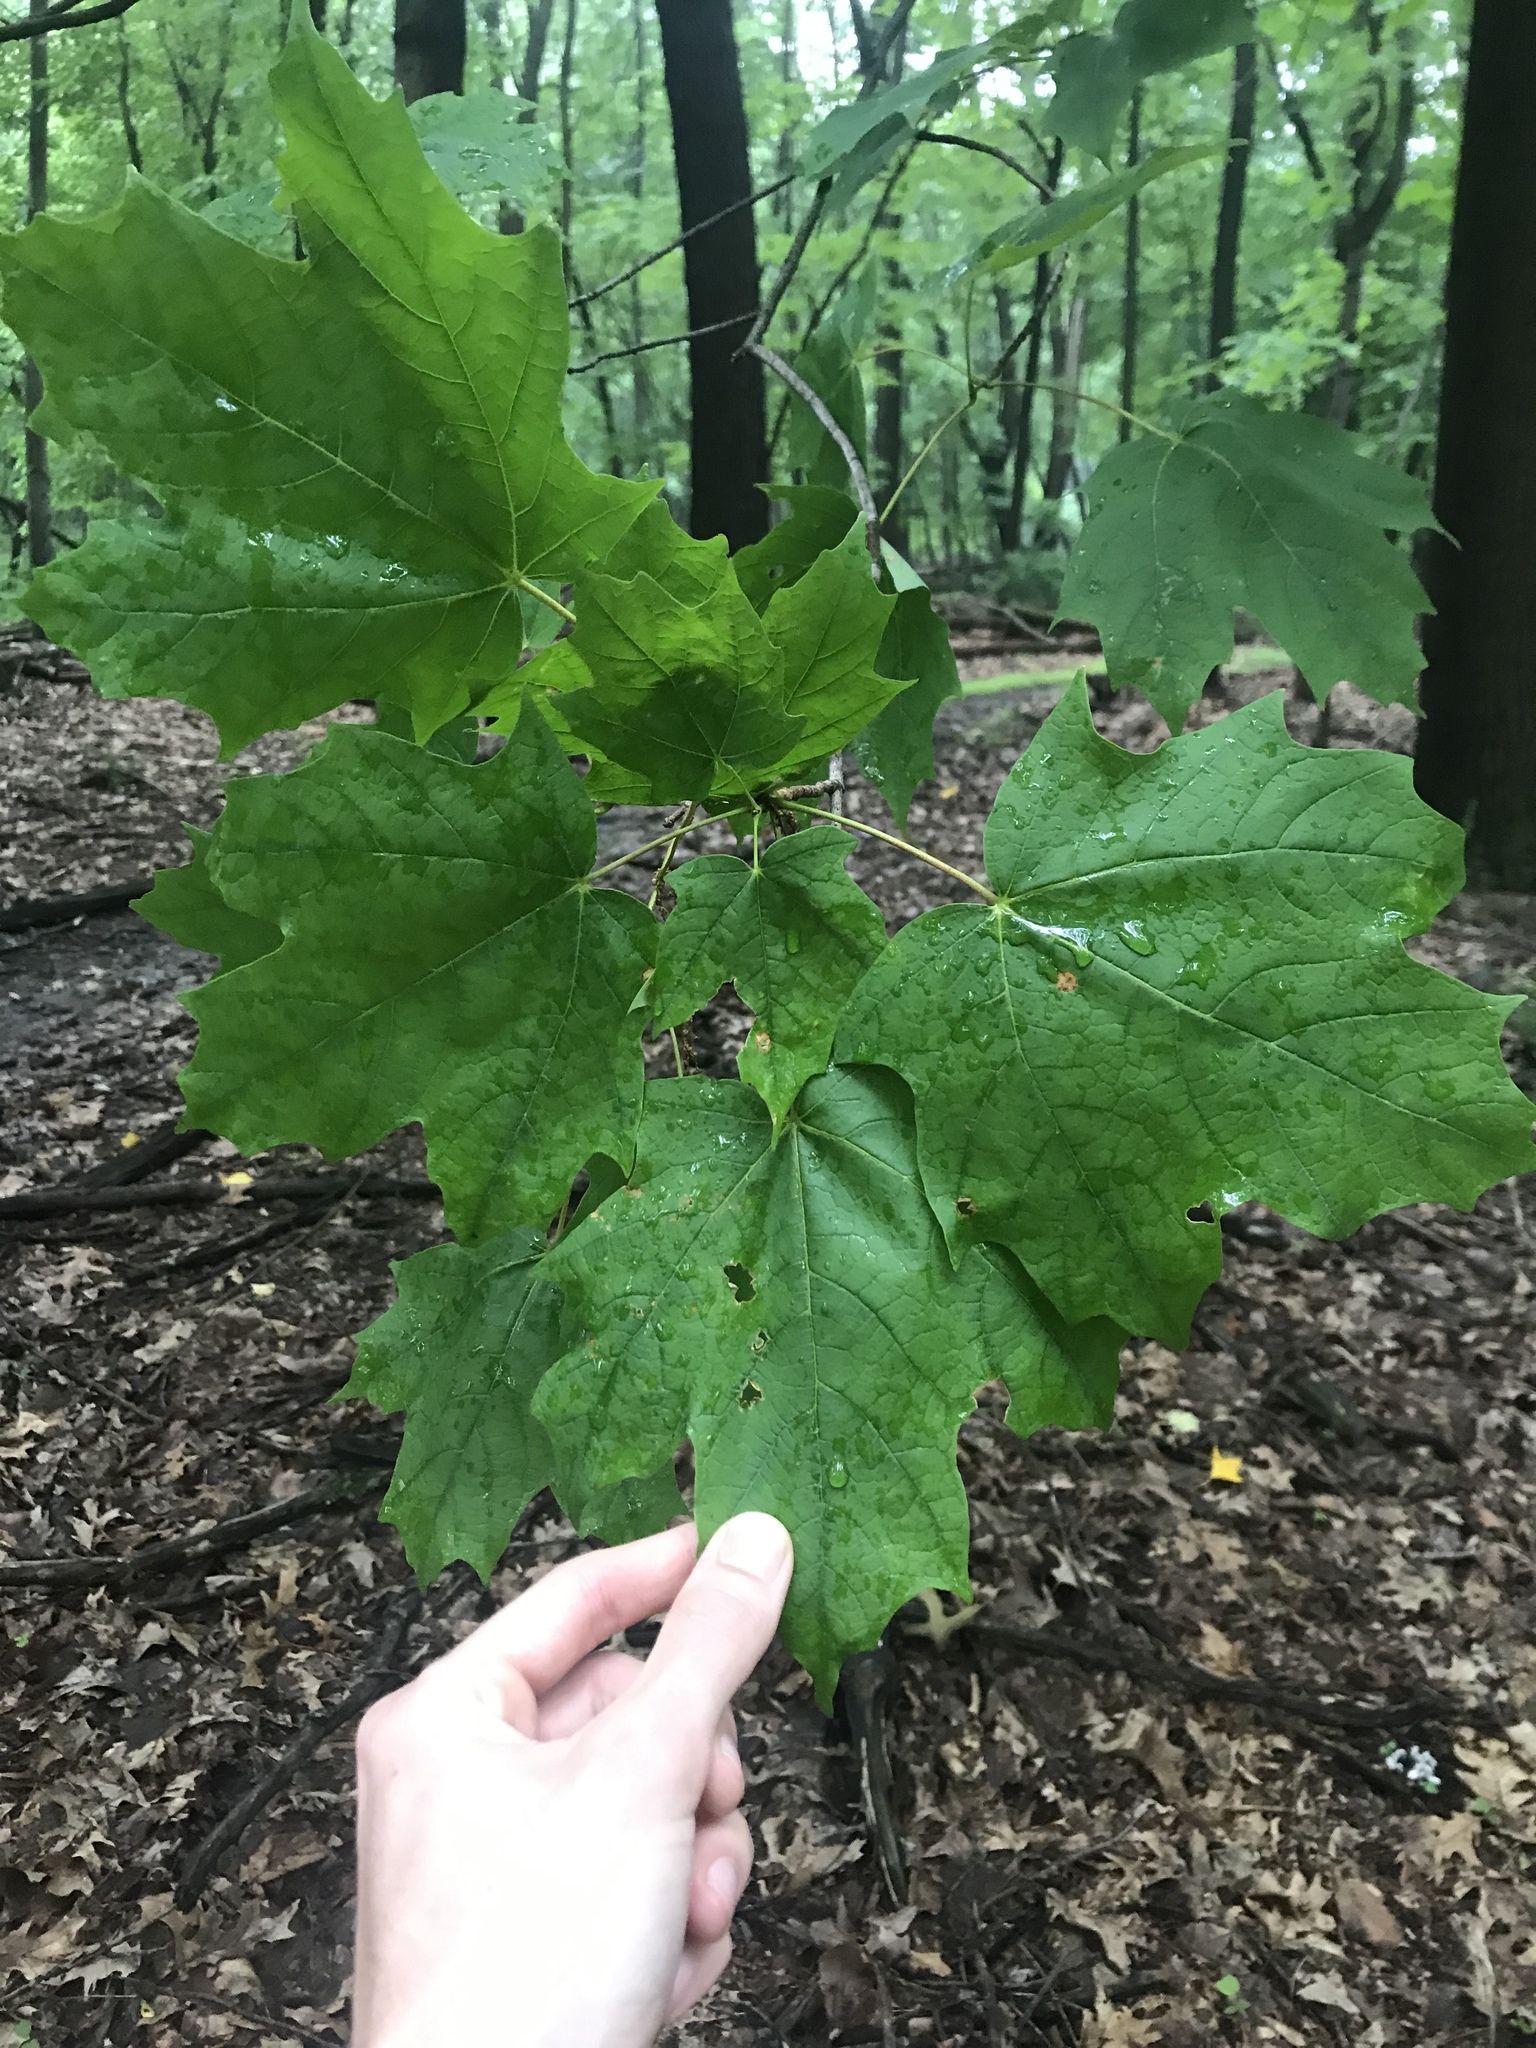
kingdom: Plantae
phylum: Tracheophyta
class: Magnoliopsida
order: Sapindales
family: Sapindaceae
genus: Acer
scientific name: Acer saccharum
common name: Sugar maple
